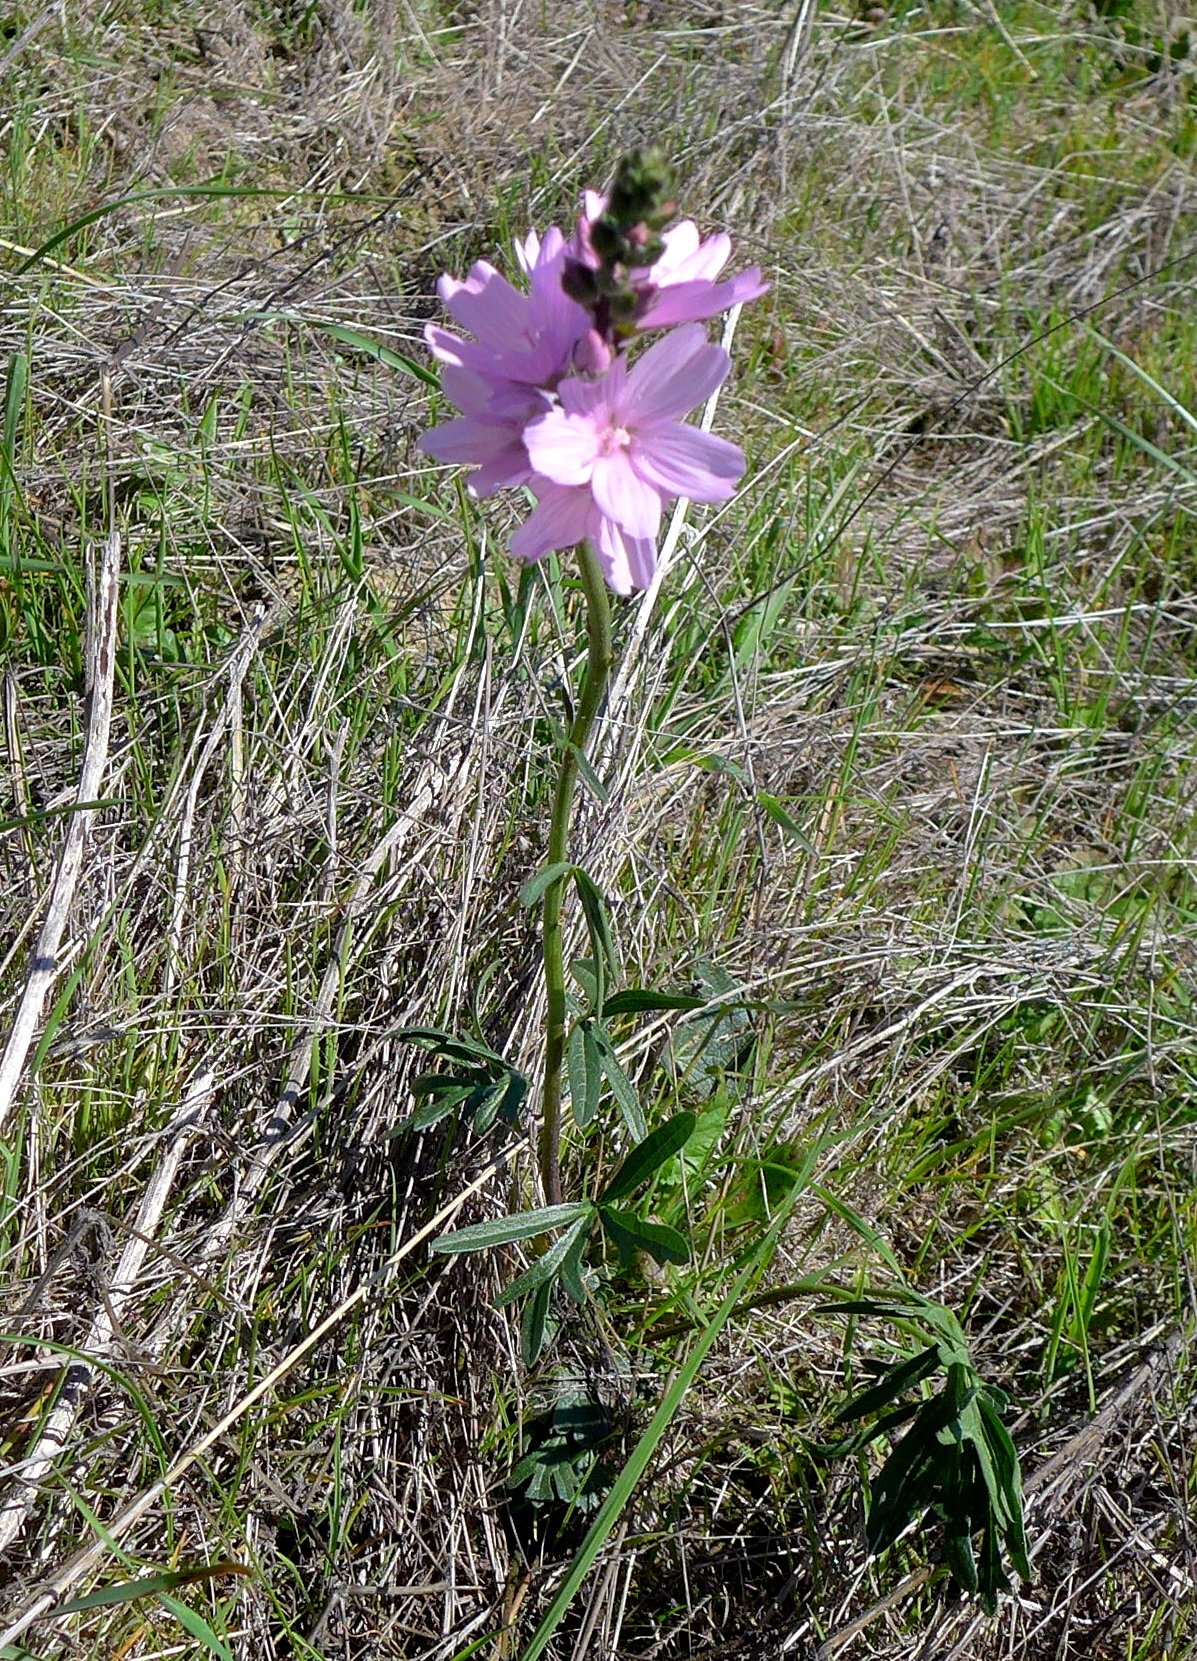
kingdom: Plantae
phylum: Tracheophyta
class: Magnoliopsida
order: Malvales
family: Malvaceae
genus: Sidalcea
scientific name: Sidalcea malviflora
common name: Greek mallow
